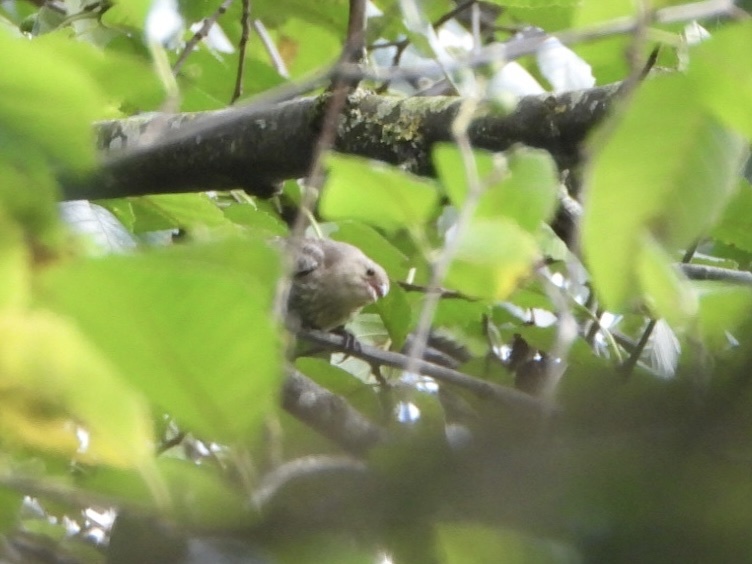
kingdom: Animalia
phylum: Chordata
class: Aves
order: Passeriformes
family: Icteridae
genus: Molothrus
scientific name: Molothrus ater
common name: Brown-headed cowbird
